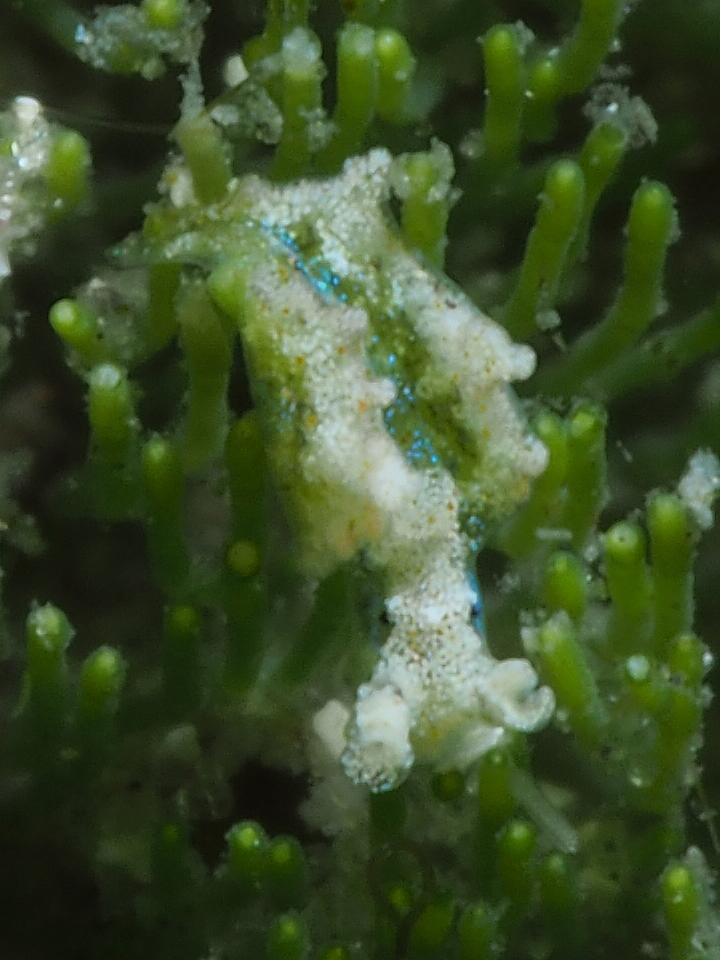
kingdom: Animalia
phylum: Mollusca
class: Gastropoda
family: Plakobranchidae
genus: Elysia
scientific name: Elysia papillosa
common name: Papillose elysia
